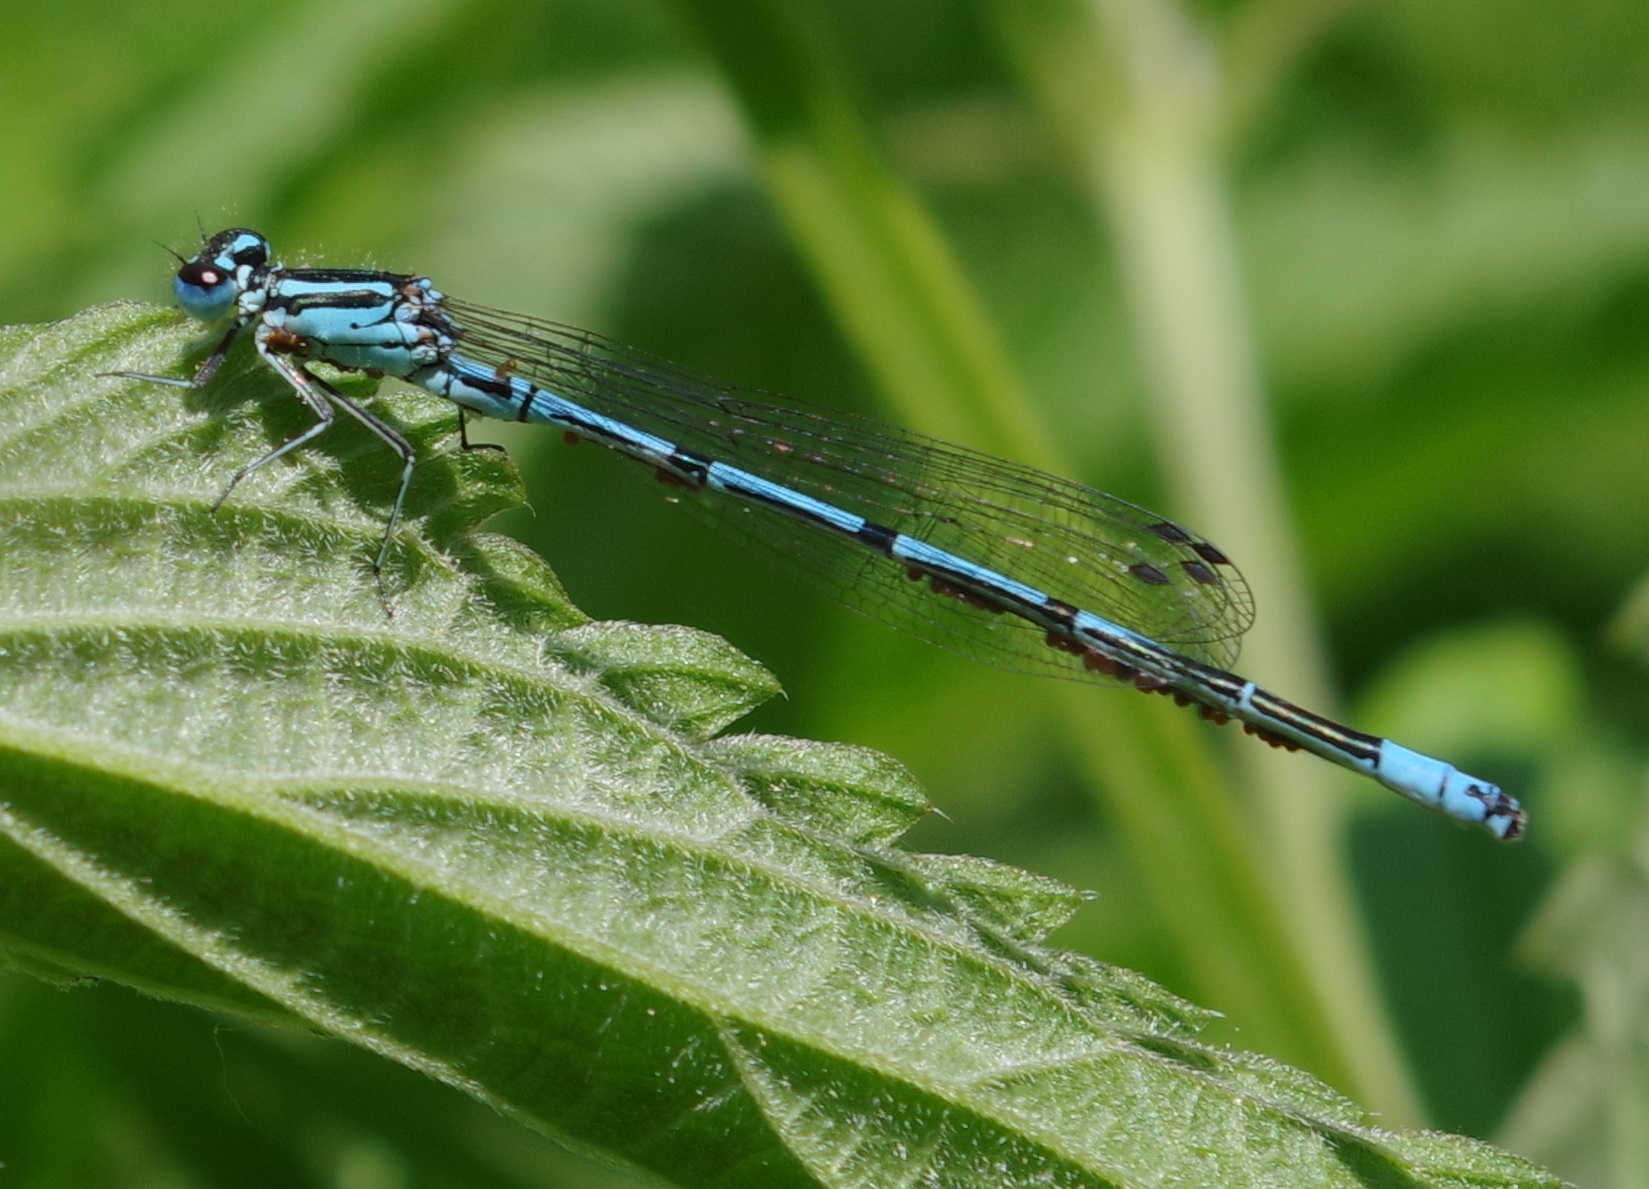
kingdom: Animalia
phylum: Arthropoda
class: Insecta
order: Odonata
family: Coenagrionidae
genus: Coenagrion
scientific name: Coenagrion puella
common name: Azure damselfly
